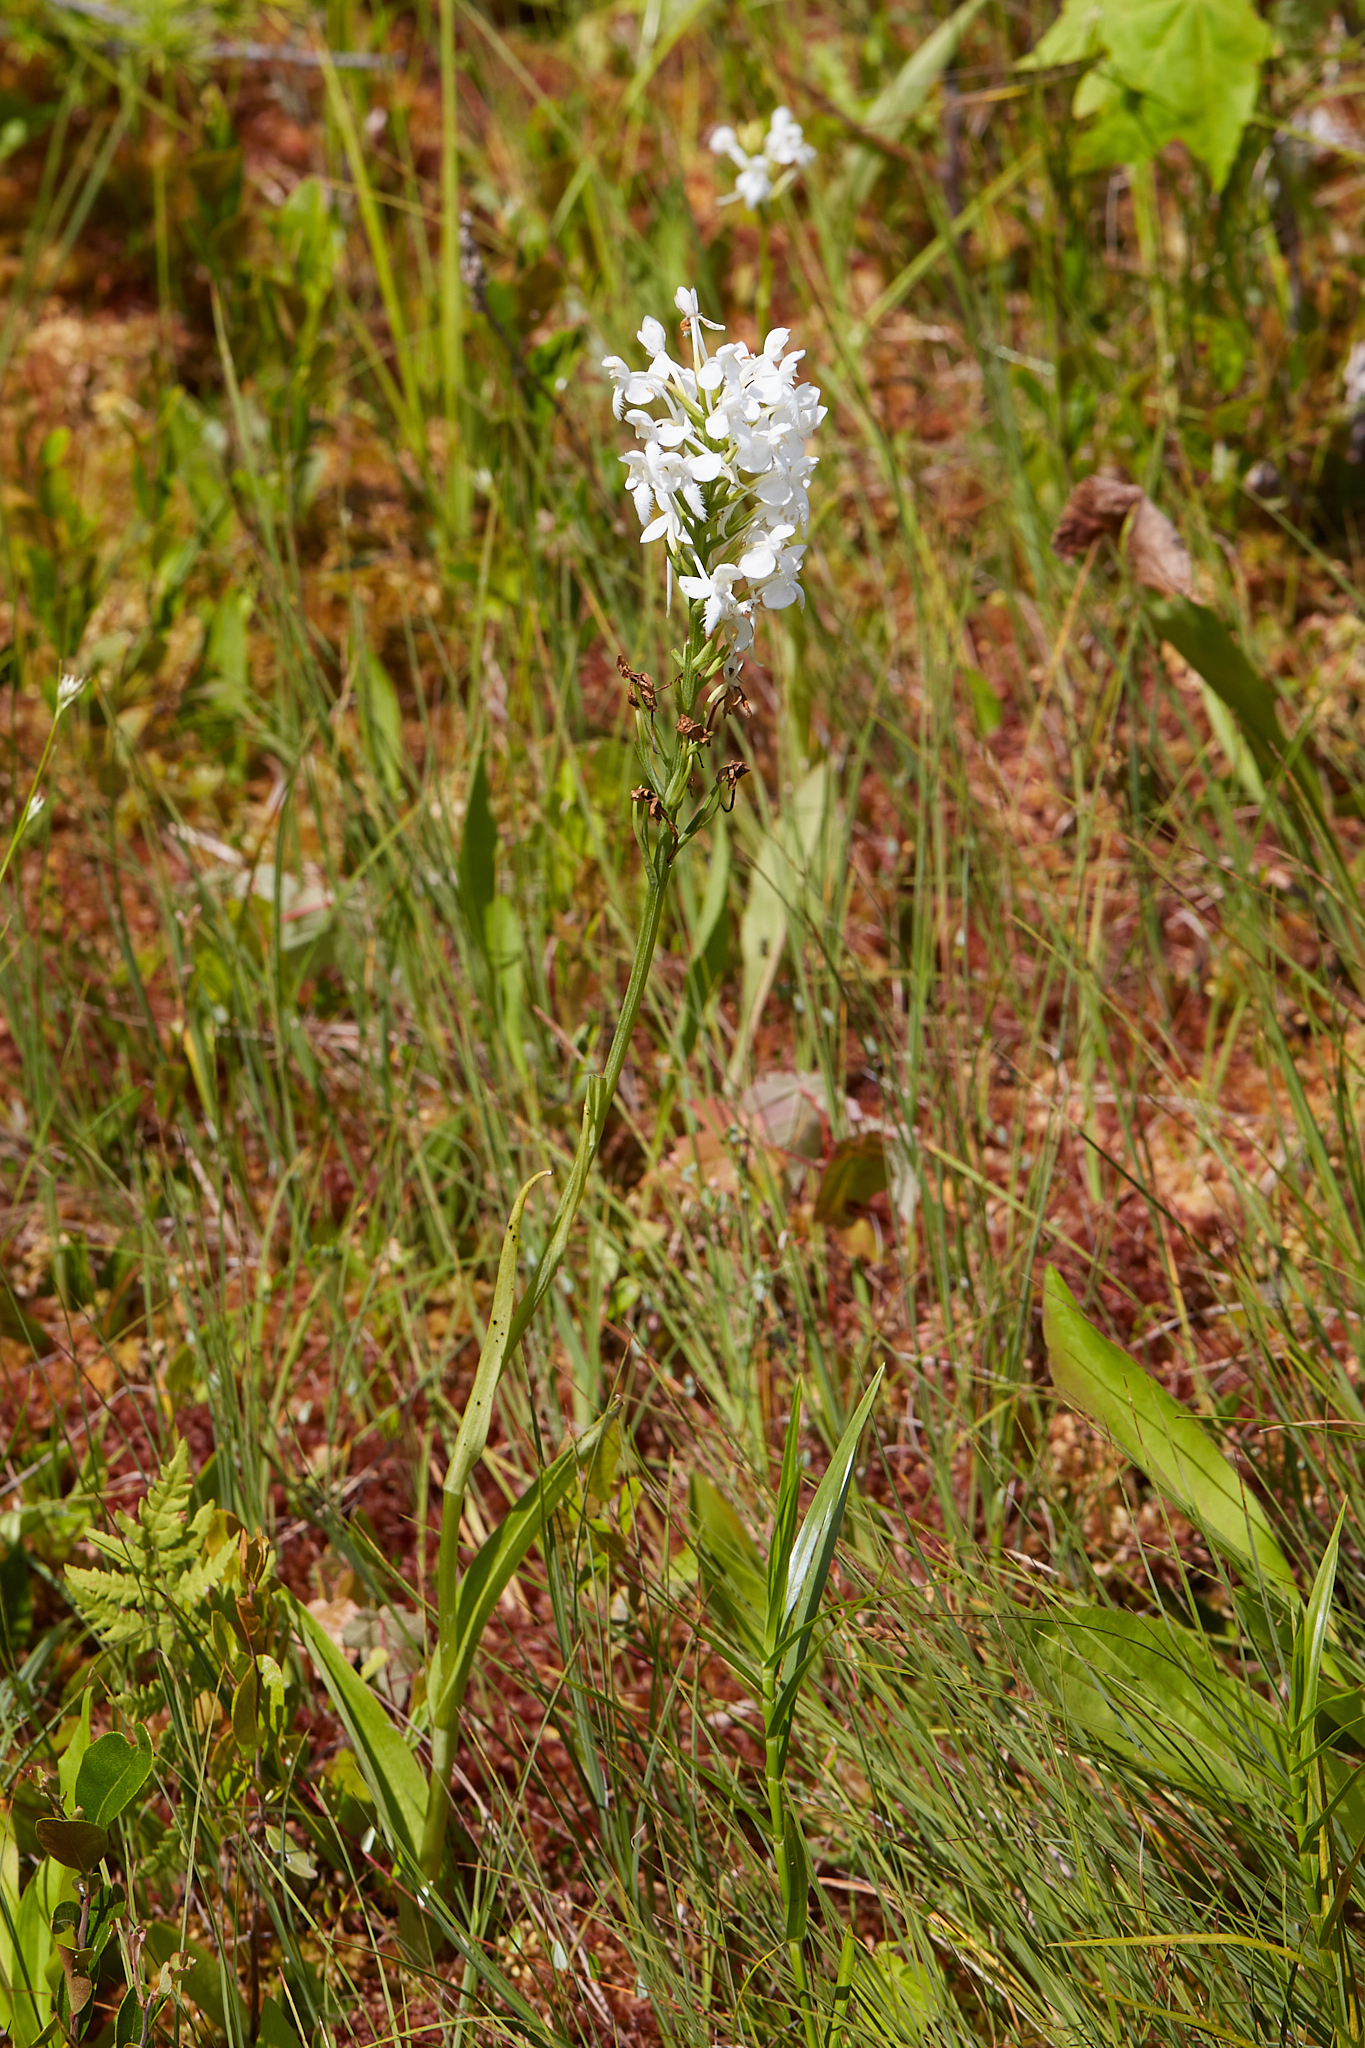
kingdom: Plantae
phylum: Tracheophyta
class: Liliopsida
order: Asparagales
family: Orchidaceae
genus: Platanthera
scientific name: Platanthera blephariglottis
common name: White fringed orchid
